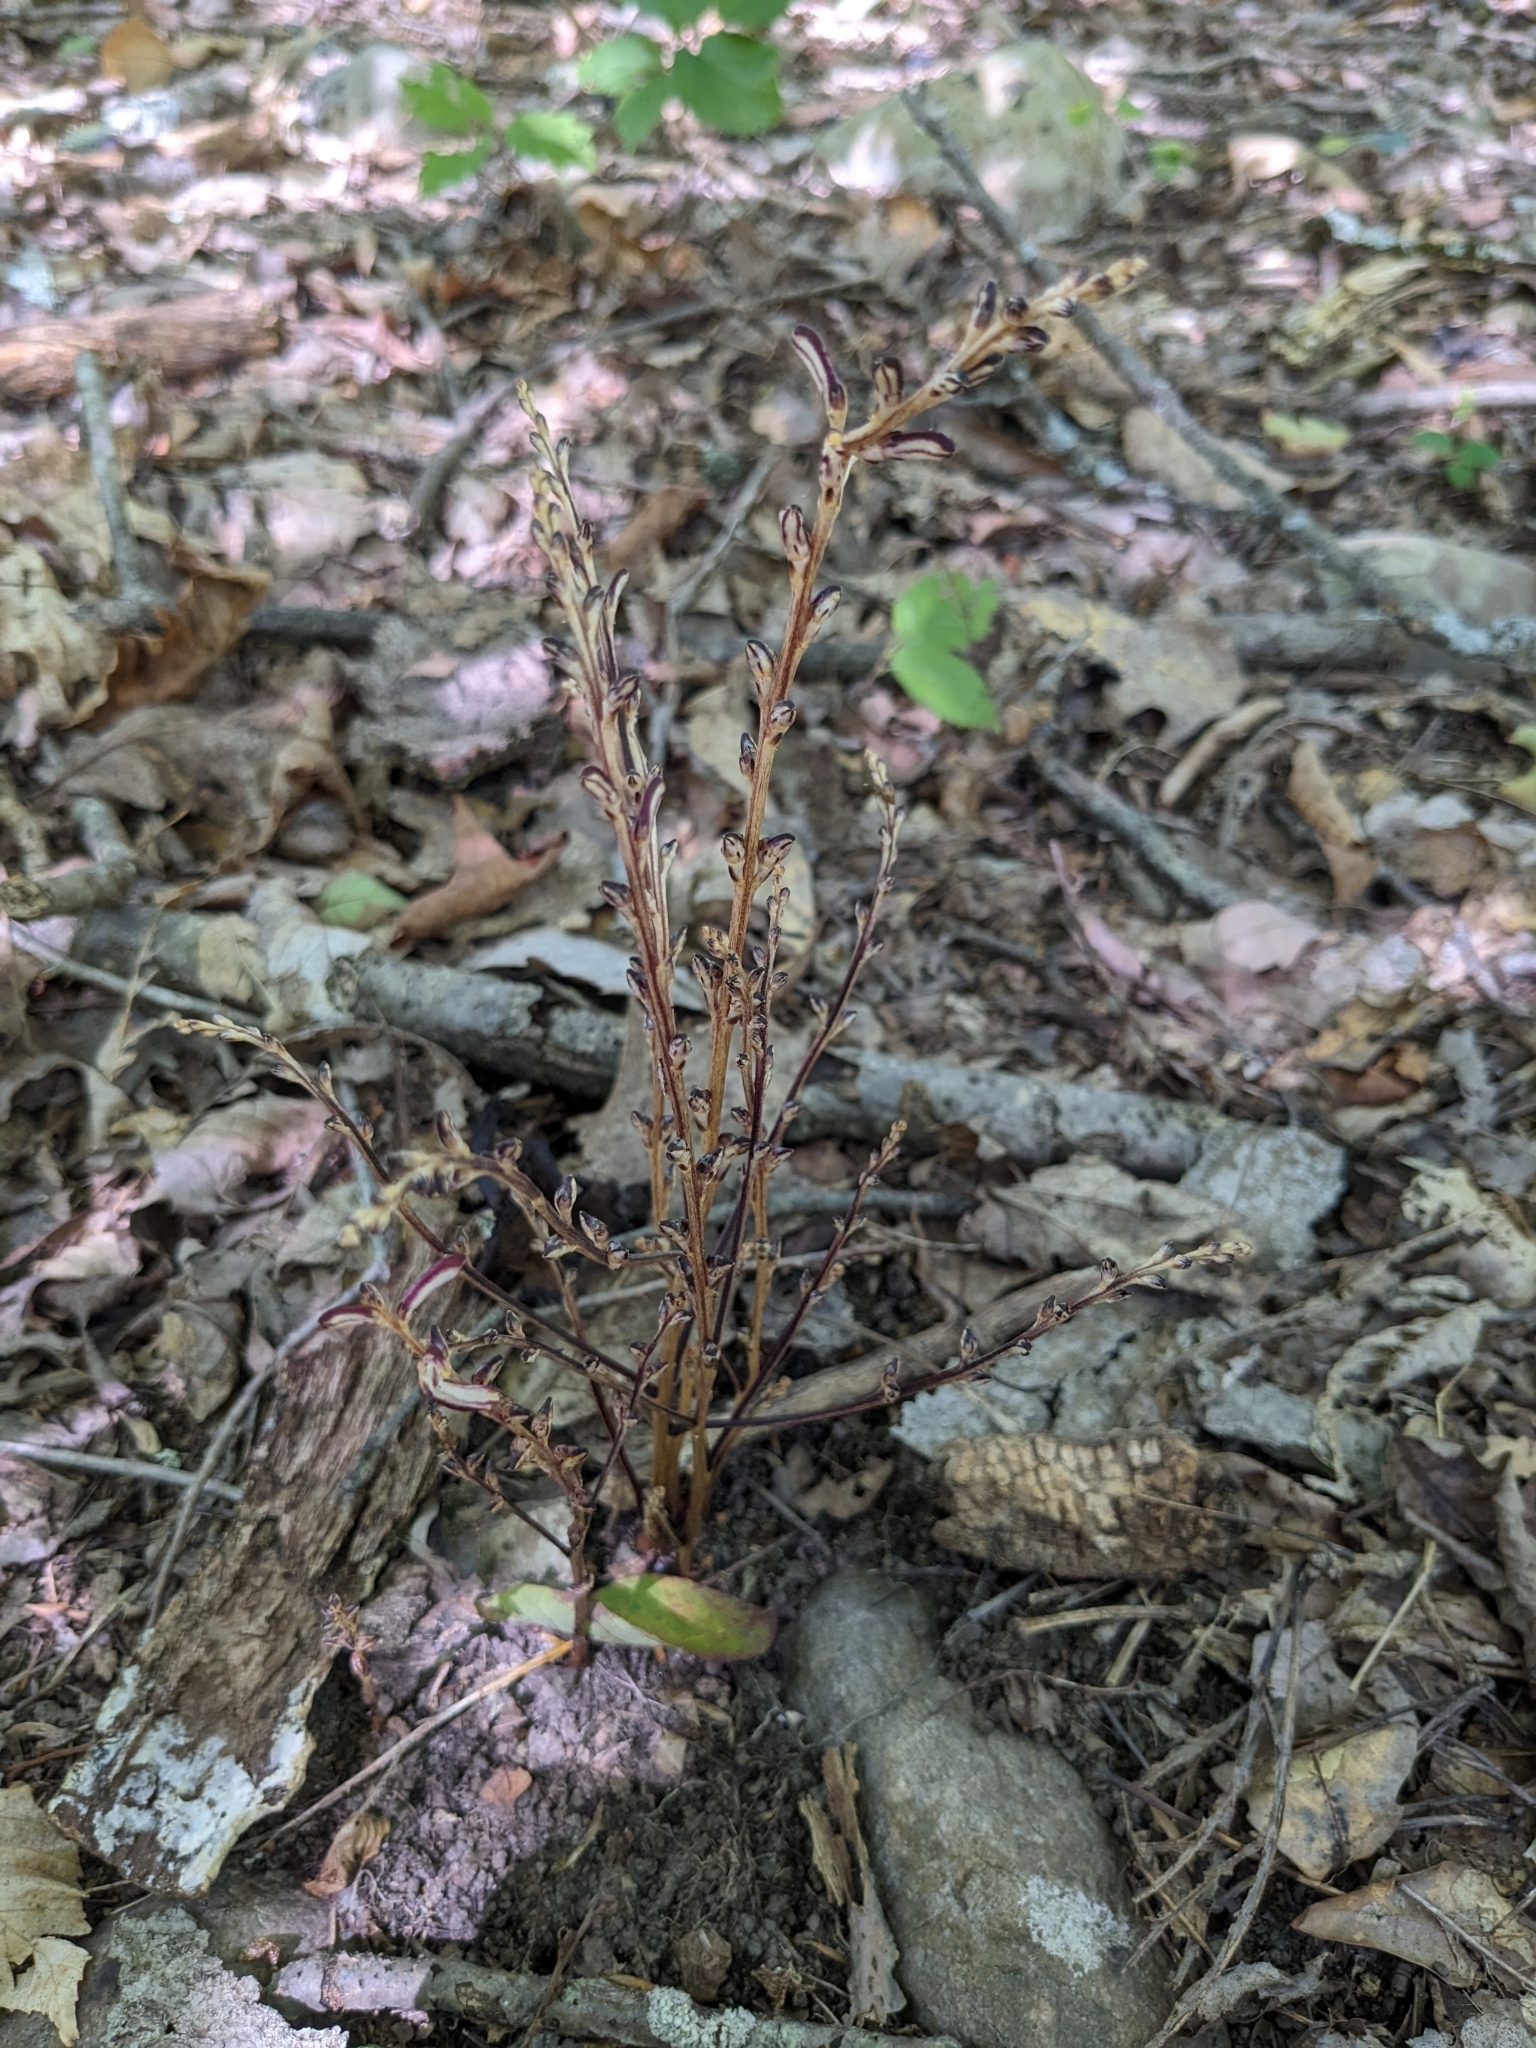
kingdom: Plantae
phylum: Tracheophyta
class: Magnoliopsida
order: Lamiales
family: Orobanchaceae
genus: Epifagus
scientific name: Epifagus virginiana
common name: Beechdrops
